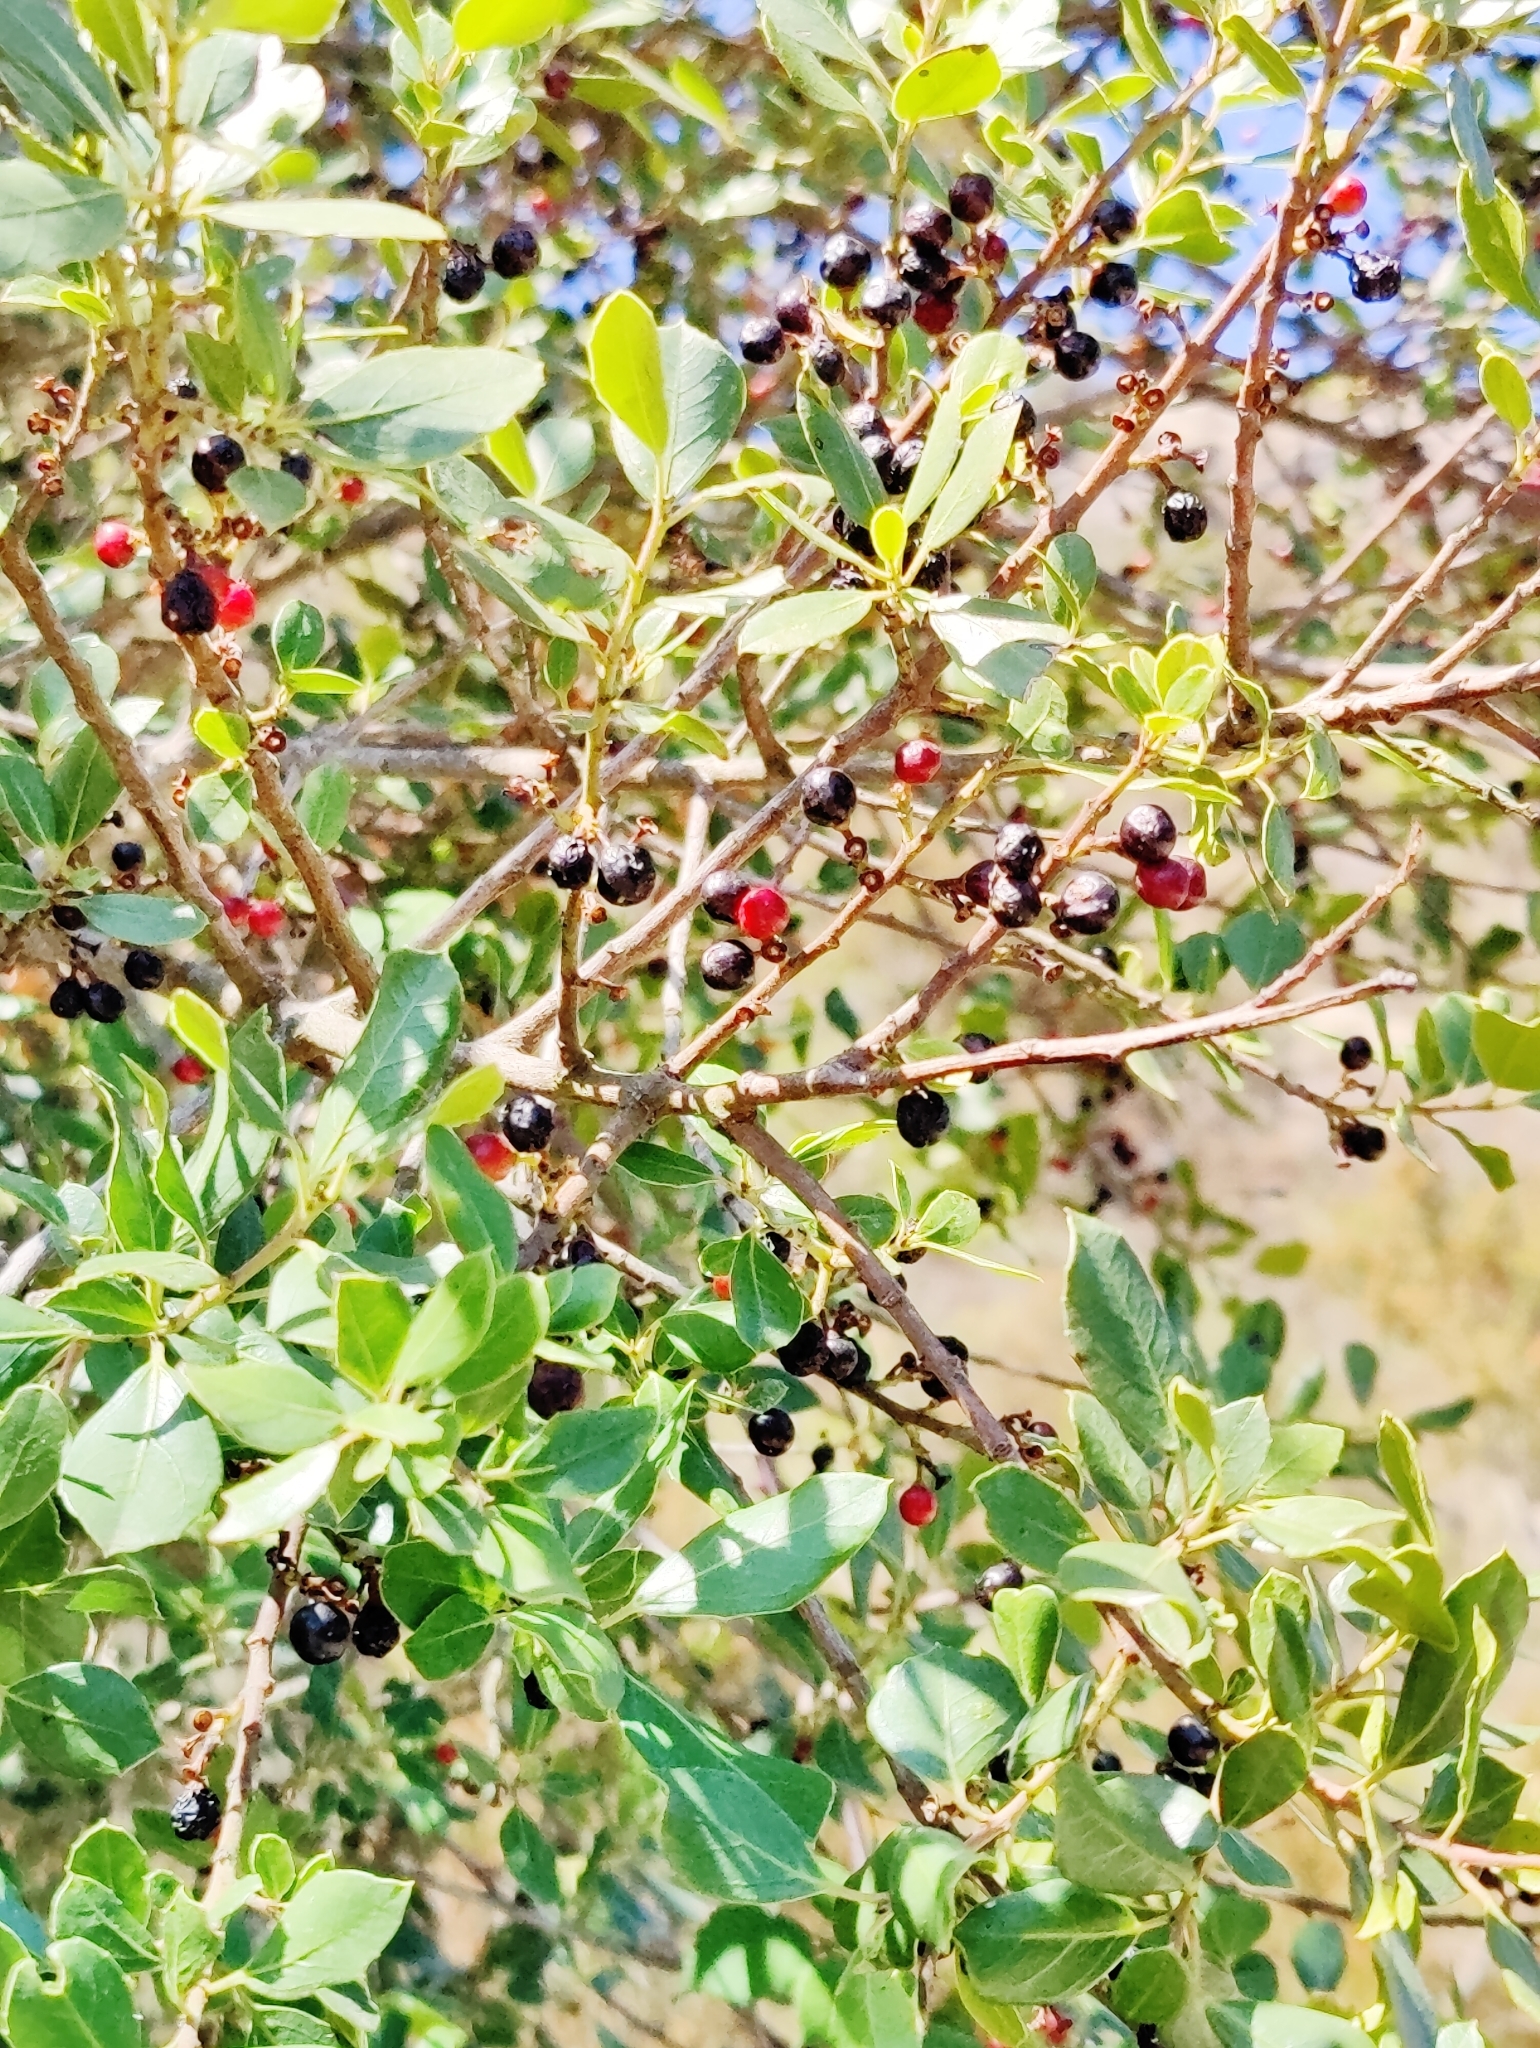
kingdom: Plantae
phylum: Tracheophyta
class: Magnoliopsida
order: Rosales
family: Rhamnaceae
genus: Rhamnus
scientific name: Rhamnus alaternus
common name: Mediterranean buckthorn
